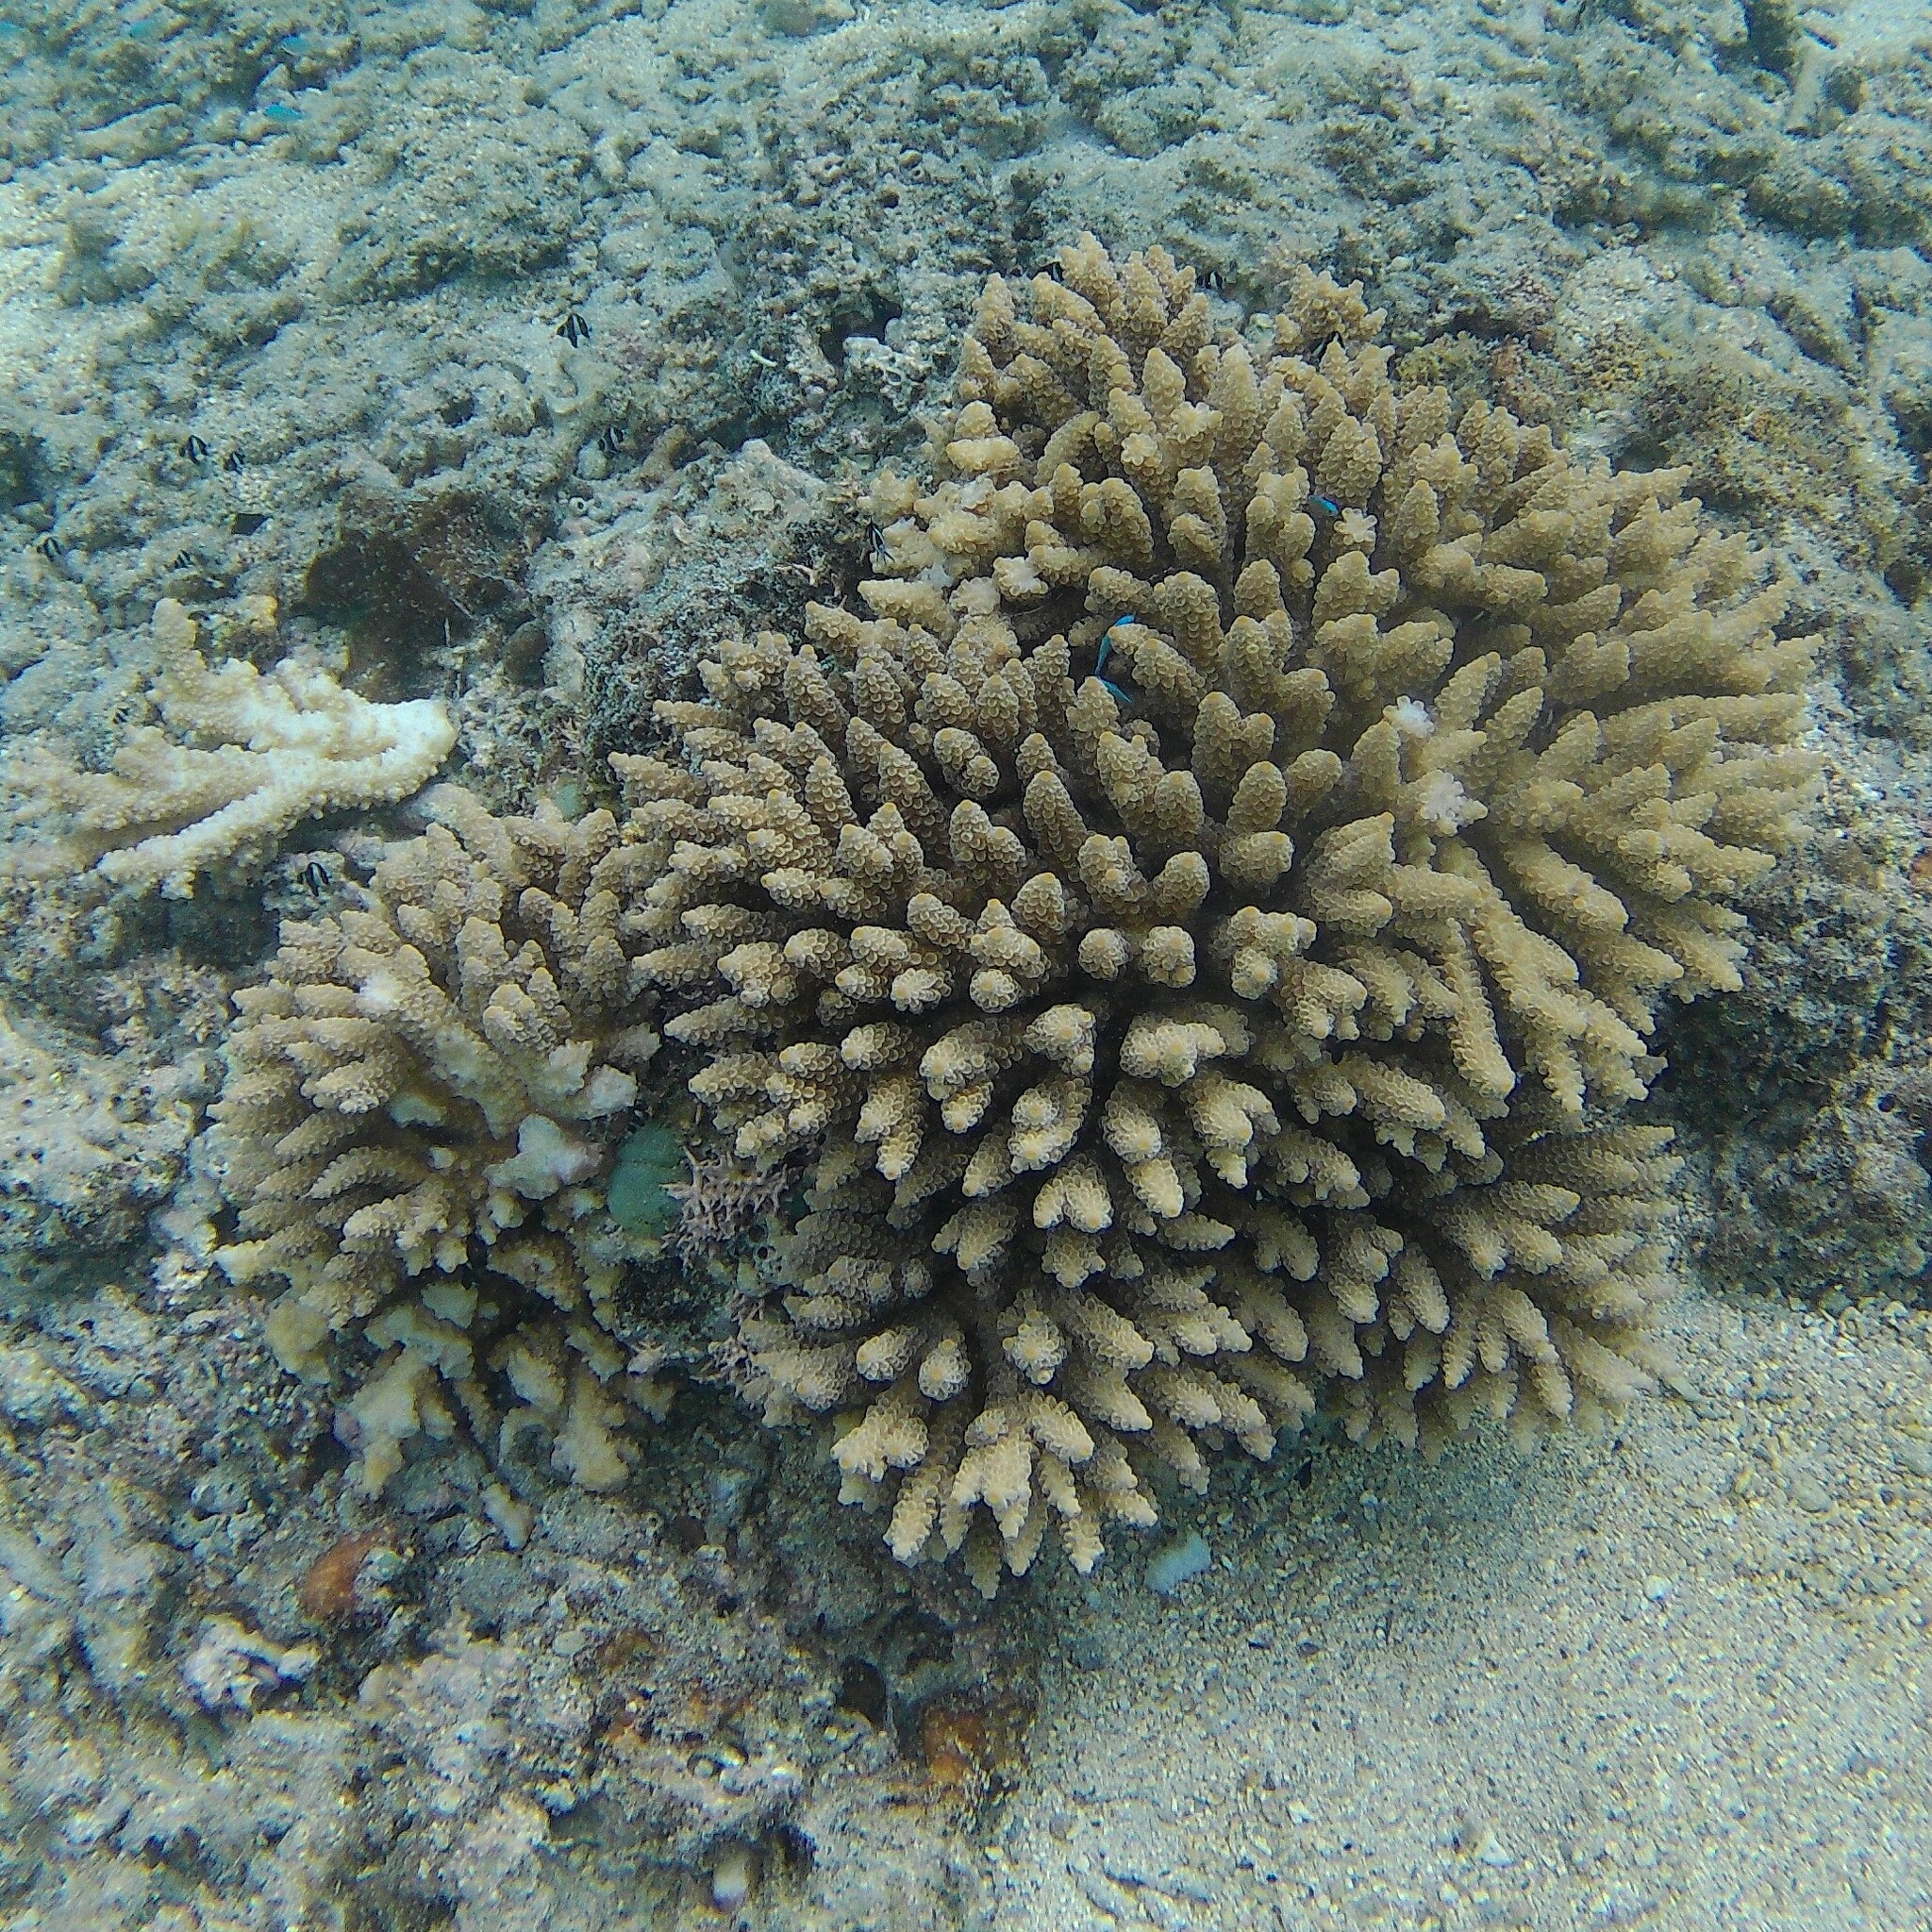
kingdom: Animalia
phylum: Cnidaria
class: Anthozoa
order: Scleractinia
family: Acroporidae
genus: Acropora
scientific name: Acropora tenuis
